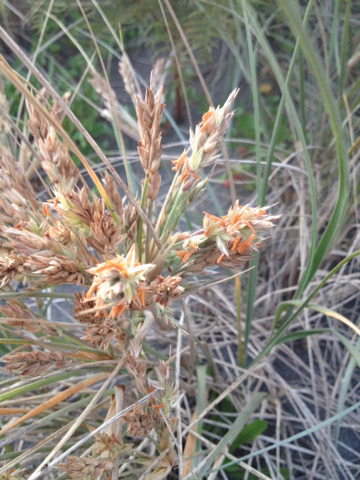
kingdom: Plantae
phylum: Tracheophyta
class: Liliopsida
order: Poales
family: Poaceae
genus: Spinifex
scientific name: Spinifex sericeus
